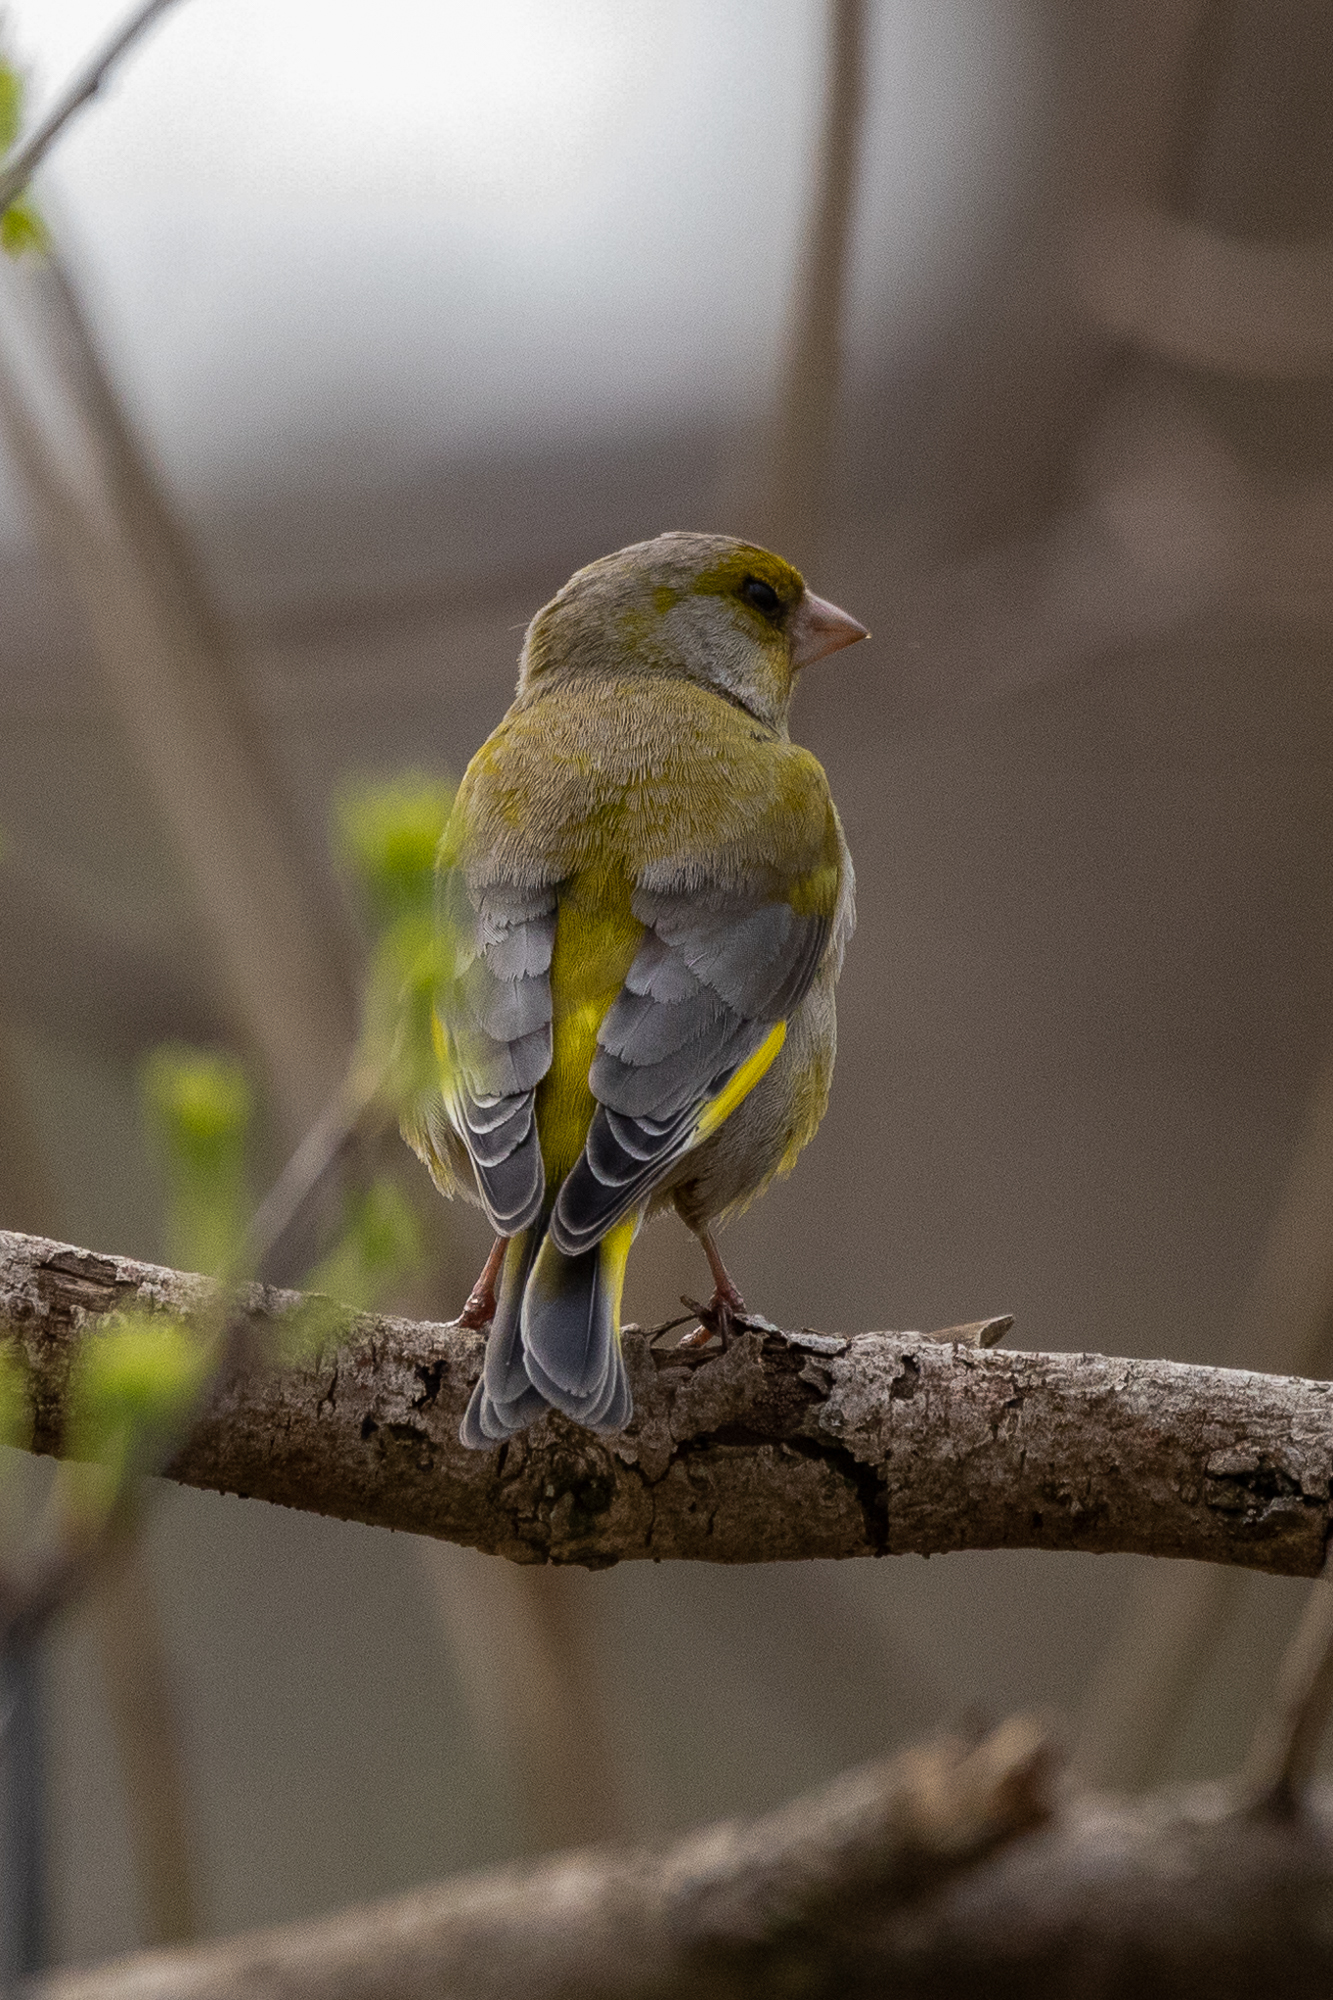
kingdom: Plantae
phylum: Tracheophyta
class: Liliopsida
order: Poales
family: Poaceae
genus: Chloris
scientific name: Chloris chloris
